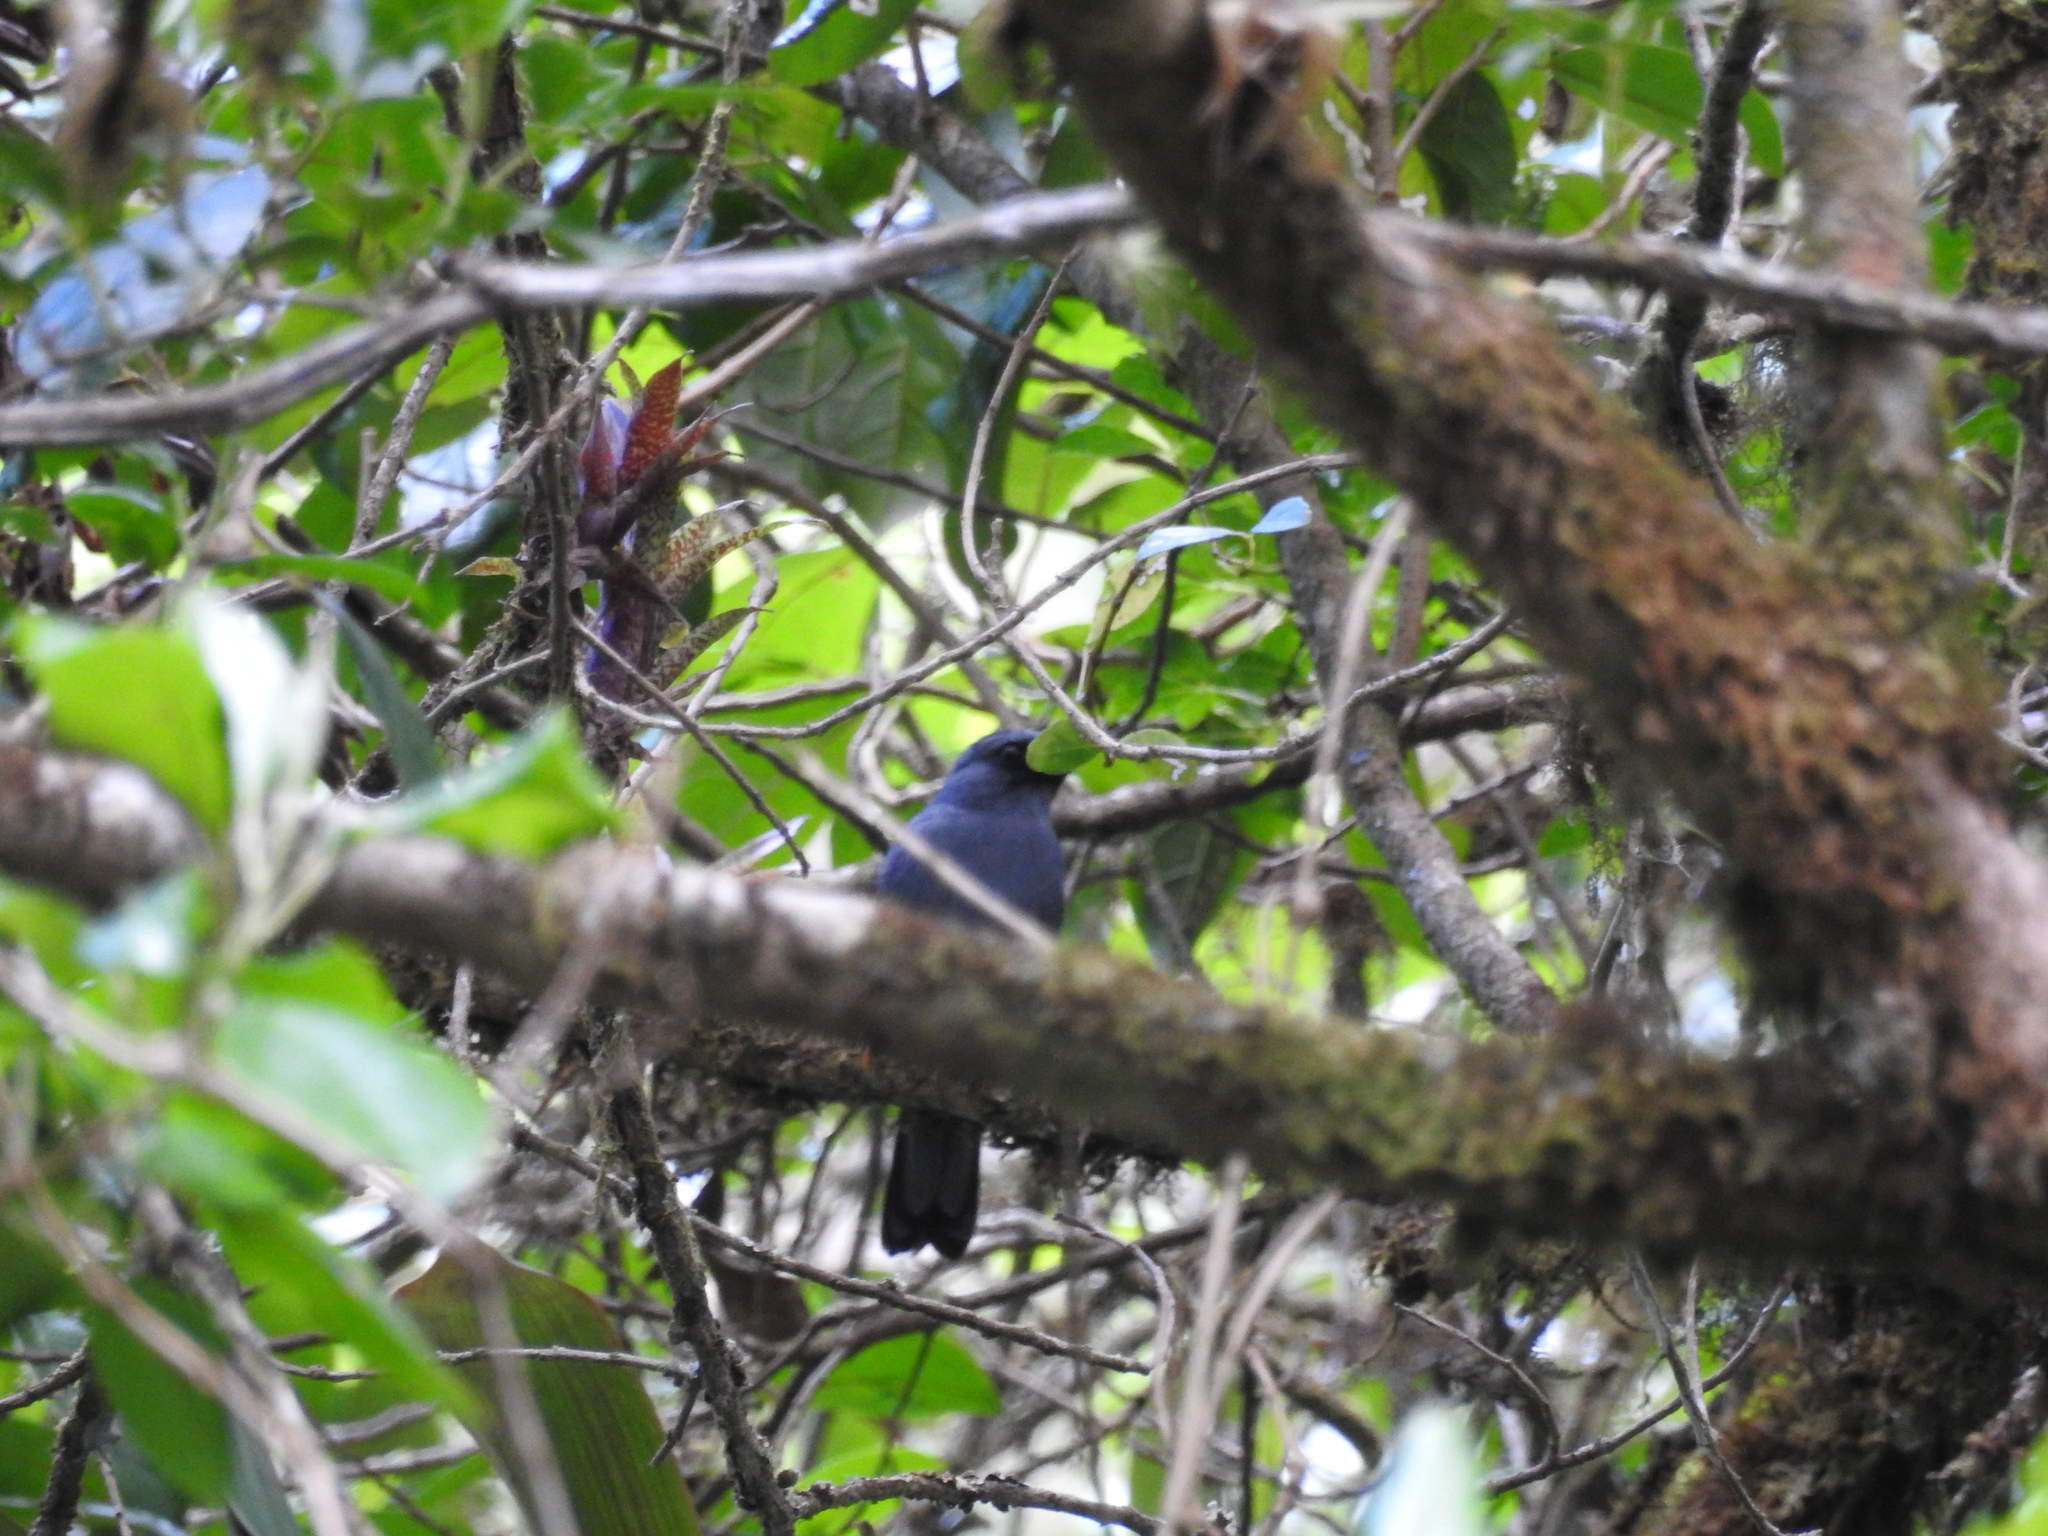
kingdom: Animalia
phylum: Chordata
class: Aves
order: Passeriformes
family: Turdidae
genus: Myadestes
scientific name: Myadestes melanops
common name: Black-faced solitaire
